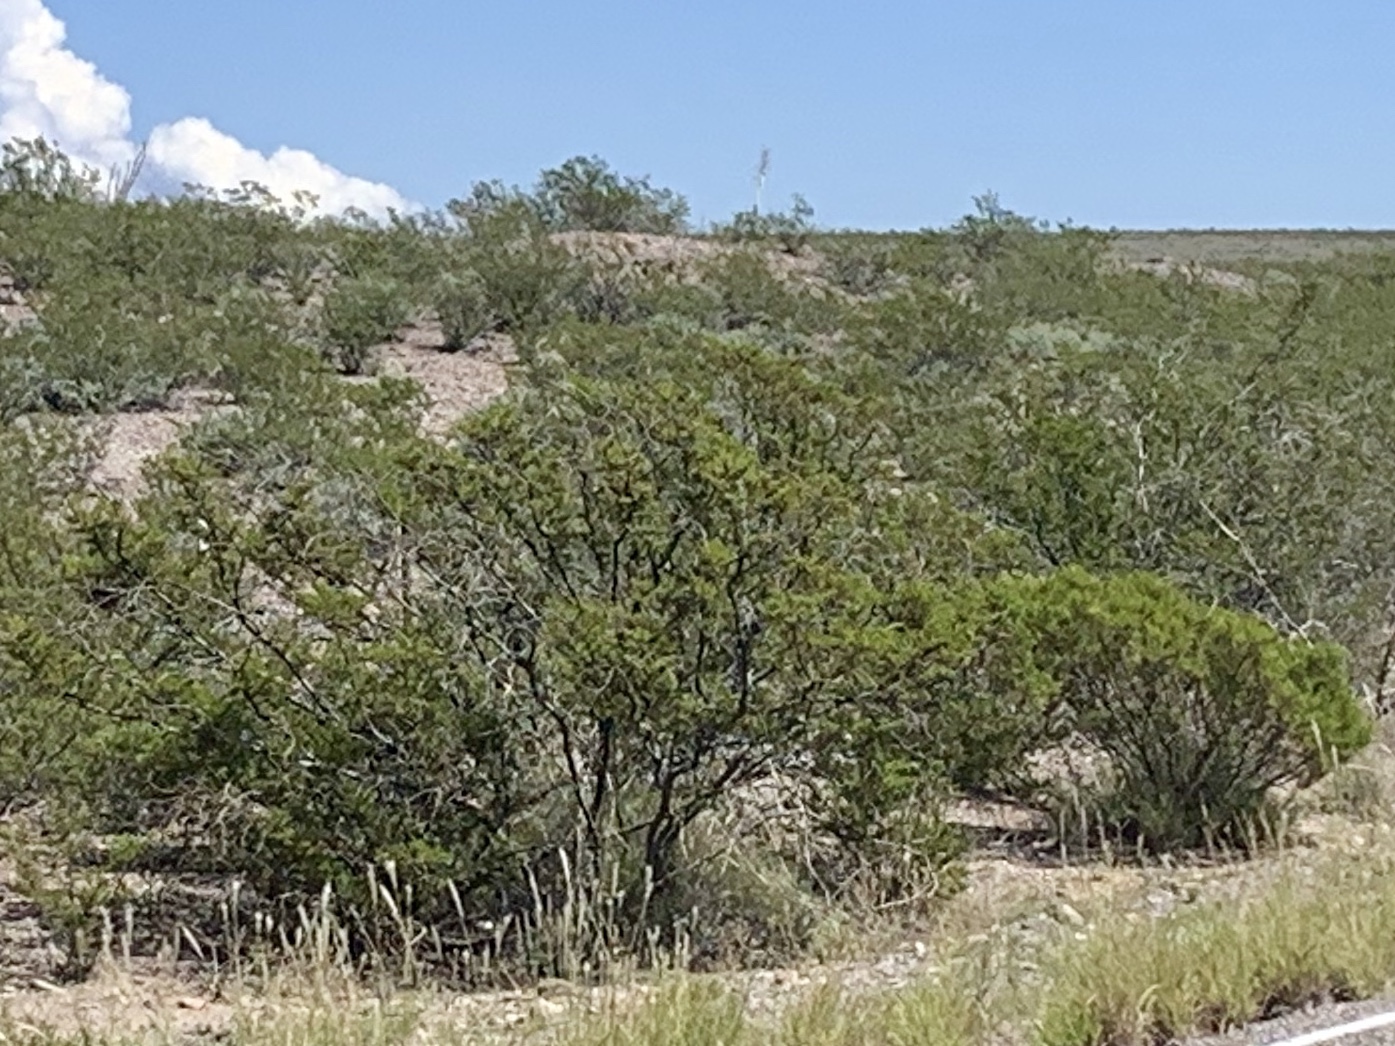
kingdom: Plantae
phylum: Tracheophyta
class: Magnoliopsida
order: Zygophyllales
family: Zygophyllaceae
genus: Larrea
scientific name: Larrea tridentata
